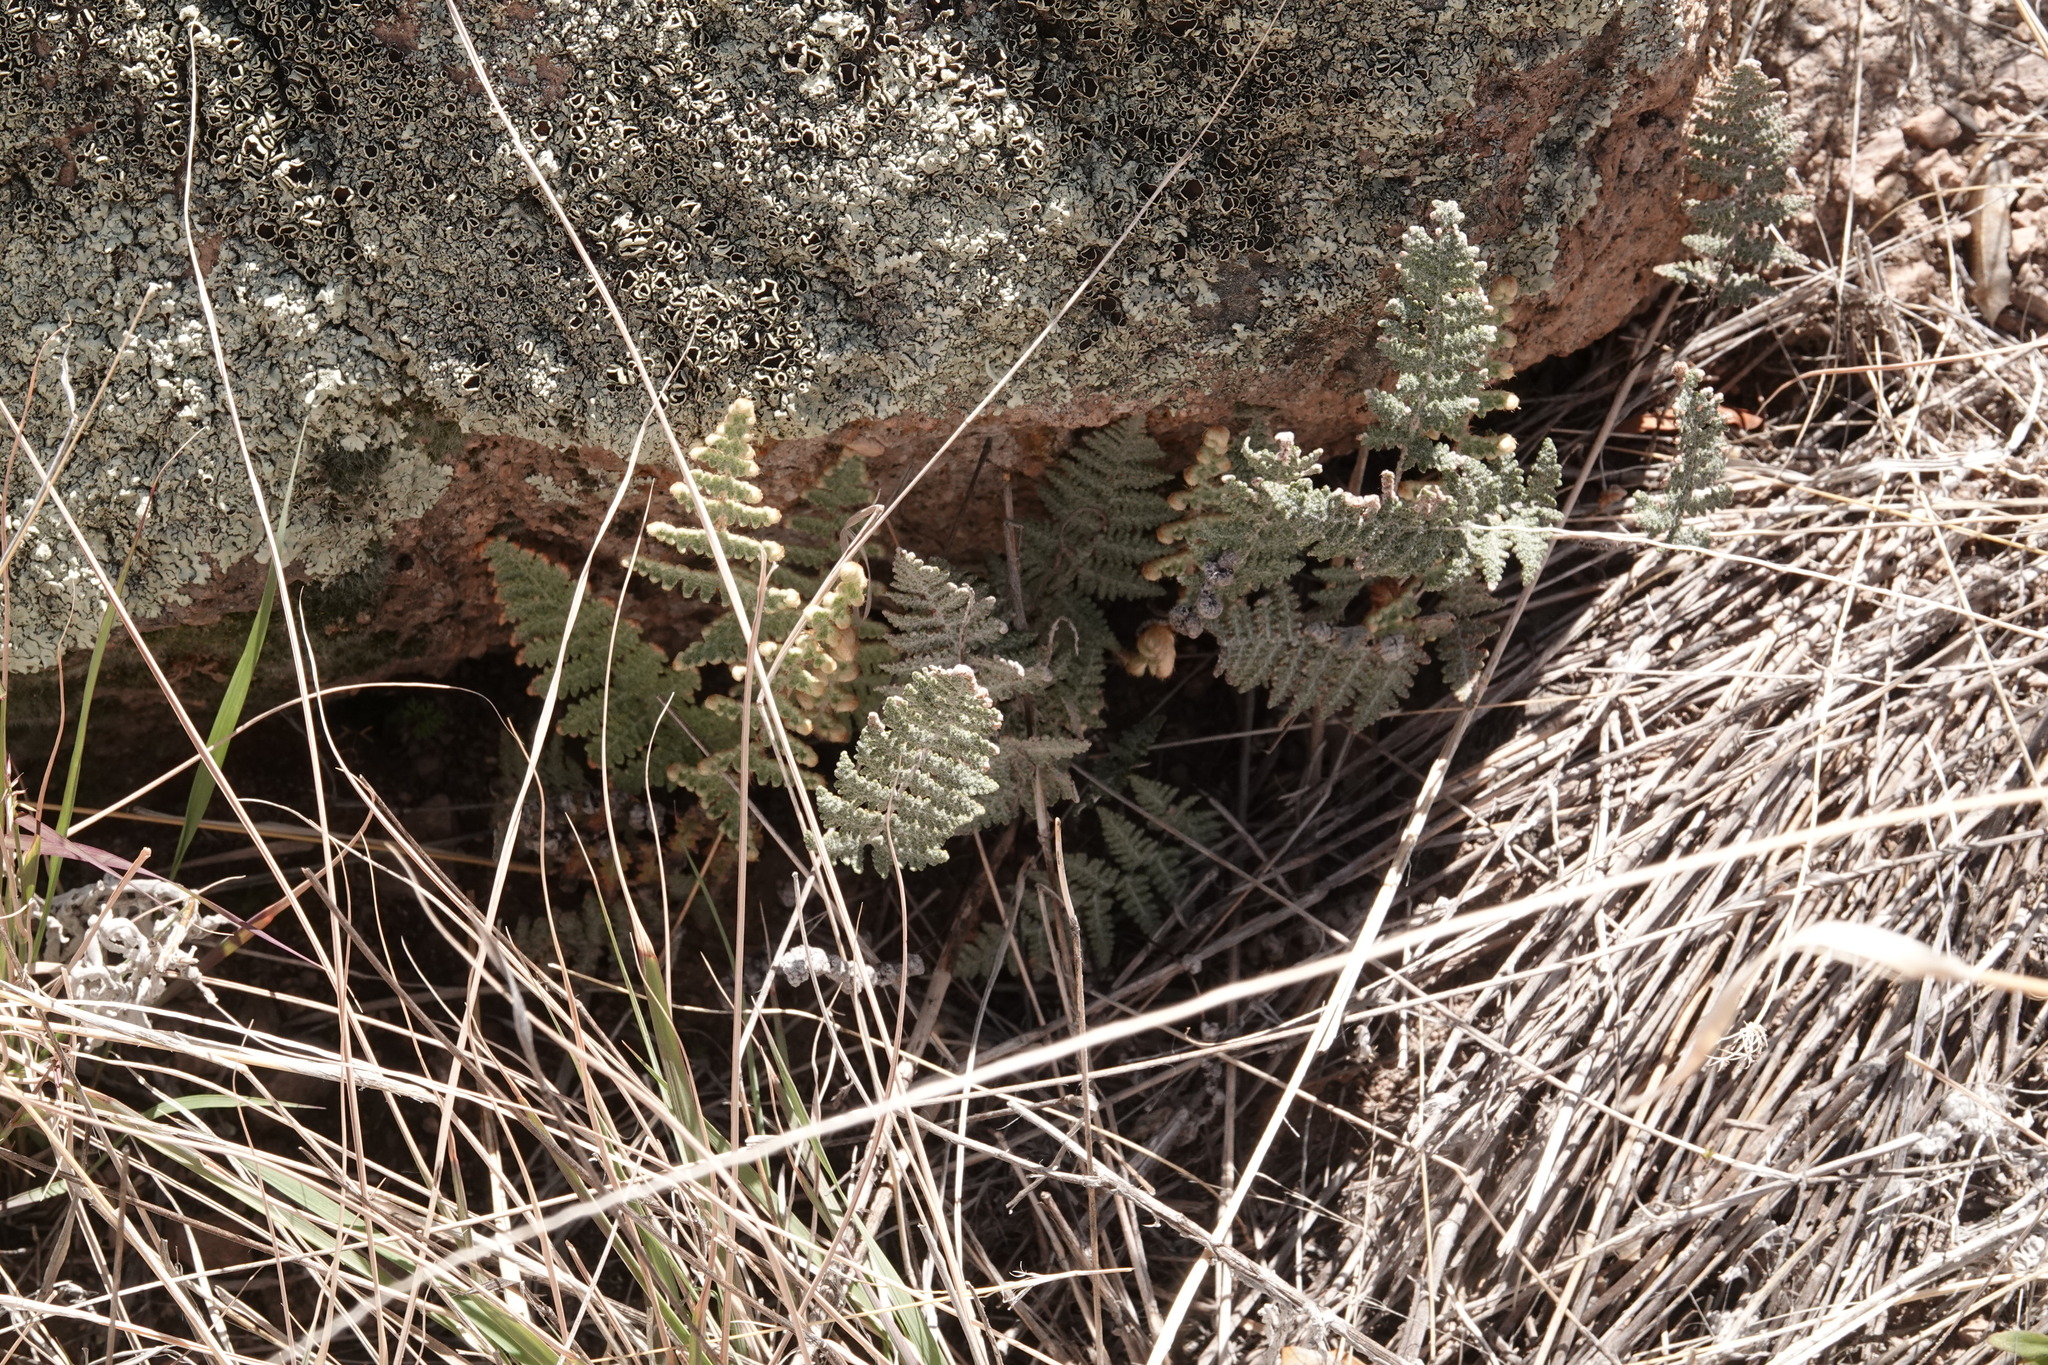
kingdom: Plantae
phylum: Tracheophyta
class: Polypodiopsida
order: Polypodiales
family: Pteridaceae
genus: Myriopteris
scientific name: Myriopteris lindheimeri
